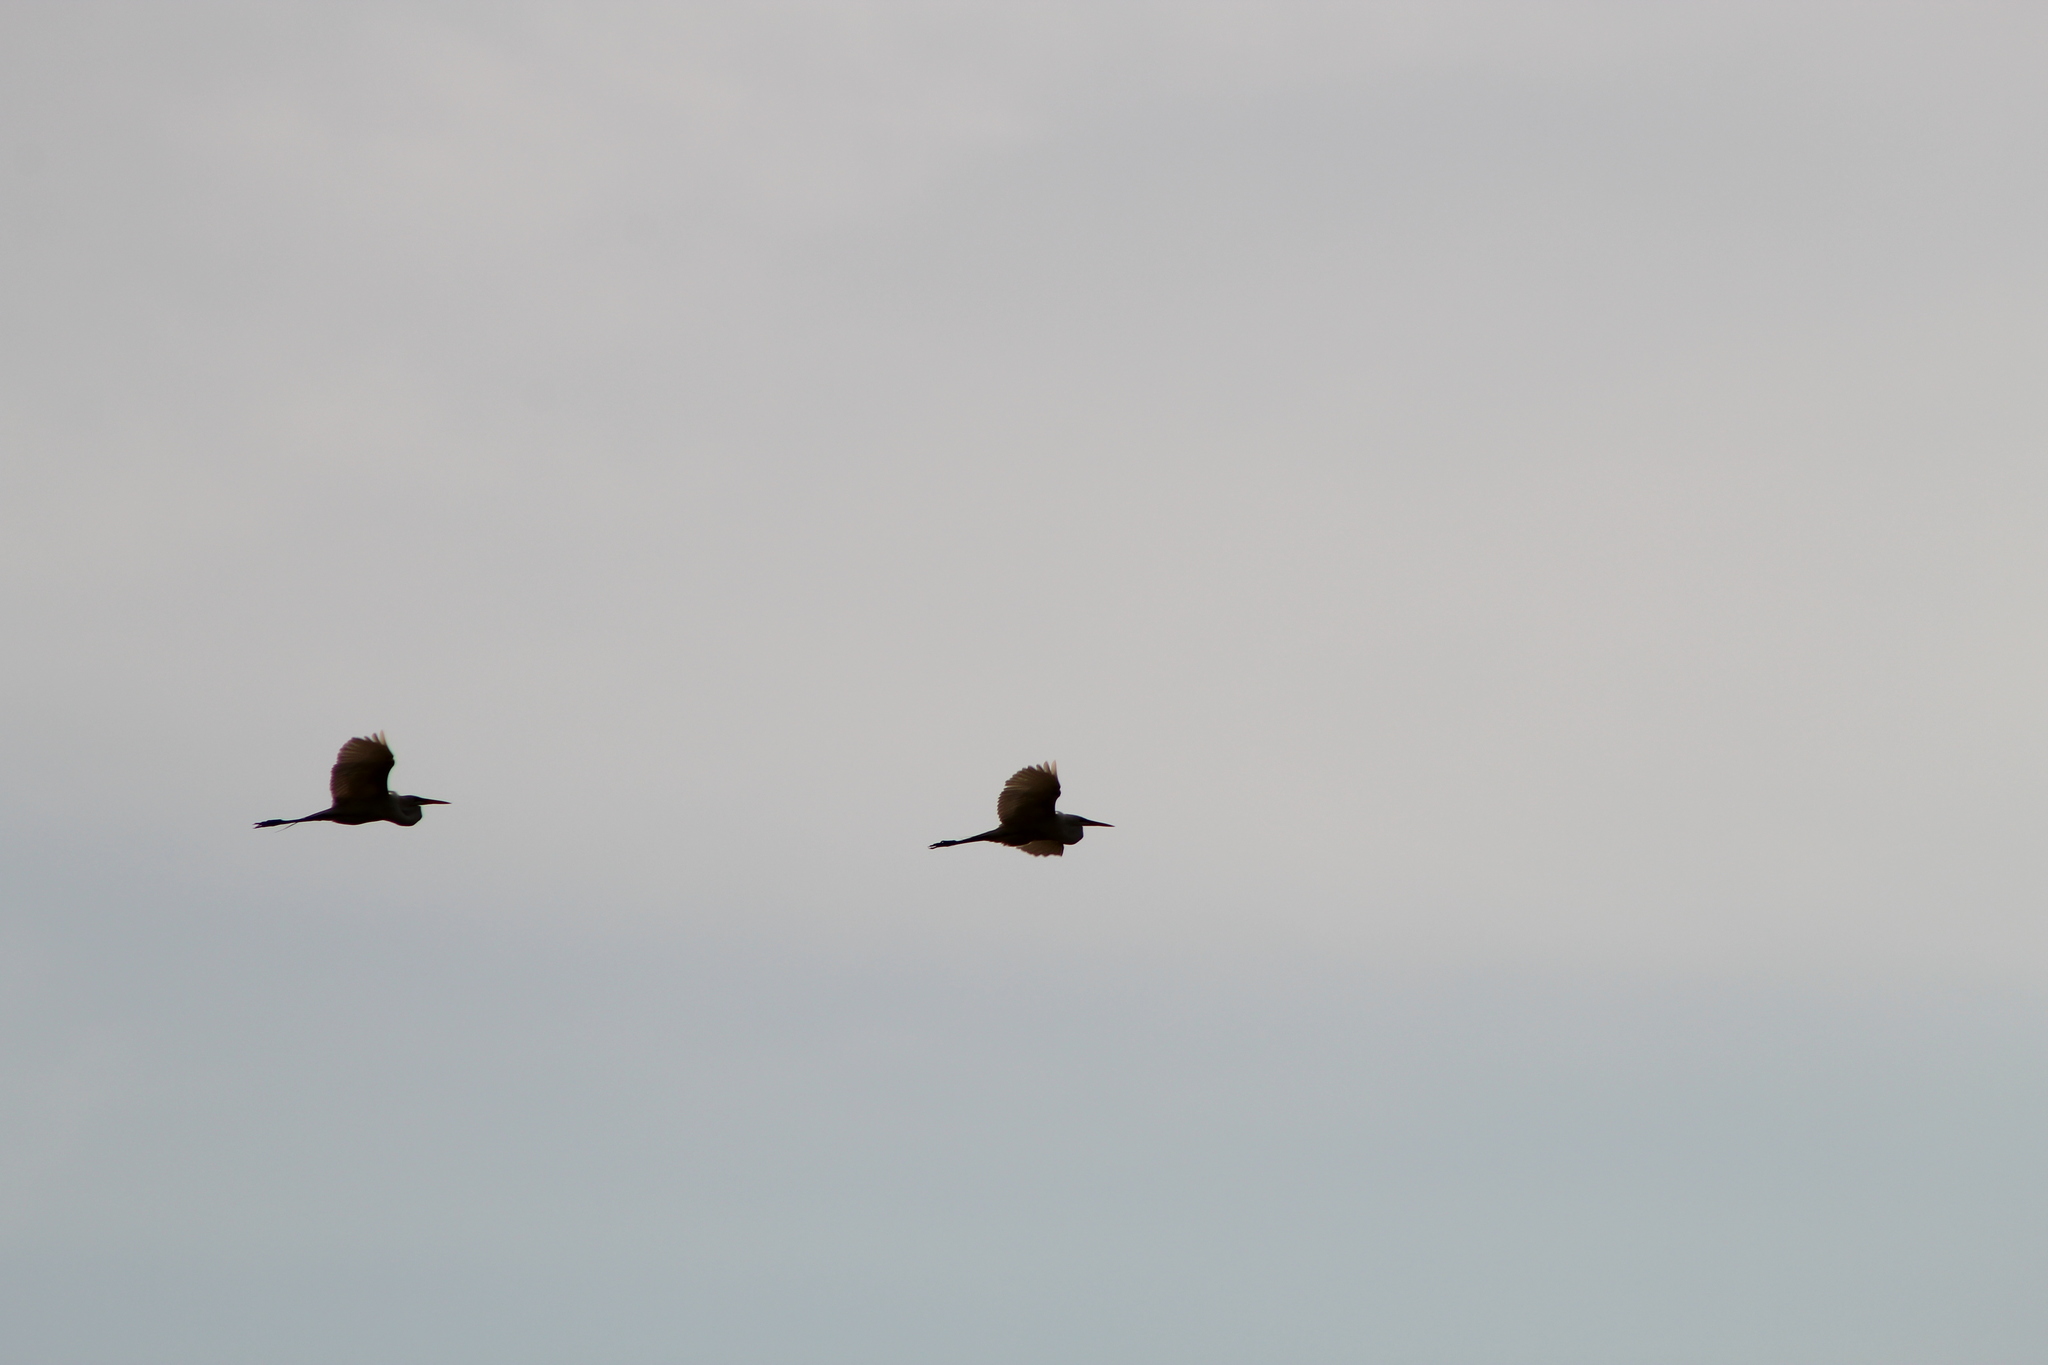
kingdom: Animalia
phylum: Chordata
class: Aves
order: Pelecaniformes
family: Ardeidae
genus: Ardea
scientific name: Ardea alba
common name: Great egret
